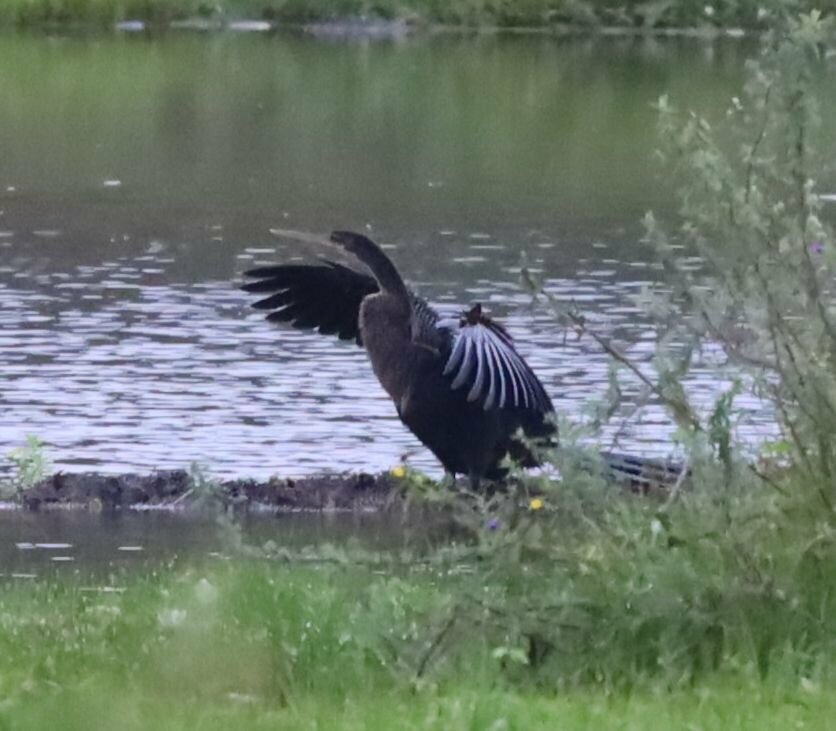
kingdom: Animalia
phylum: Chordata
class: Aves
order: Suliformes
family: Anhingidae
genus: Anhinga
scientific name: Anhinga anhinga
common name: Anhinga
